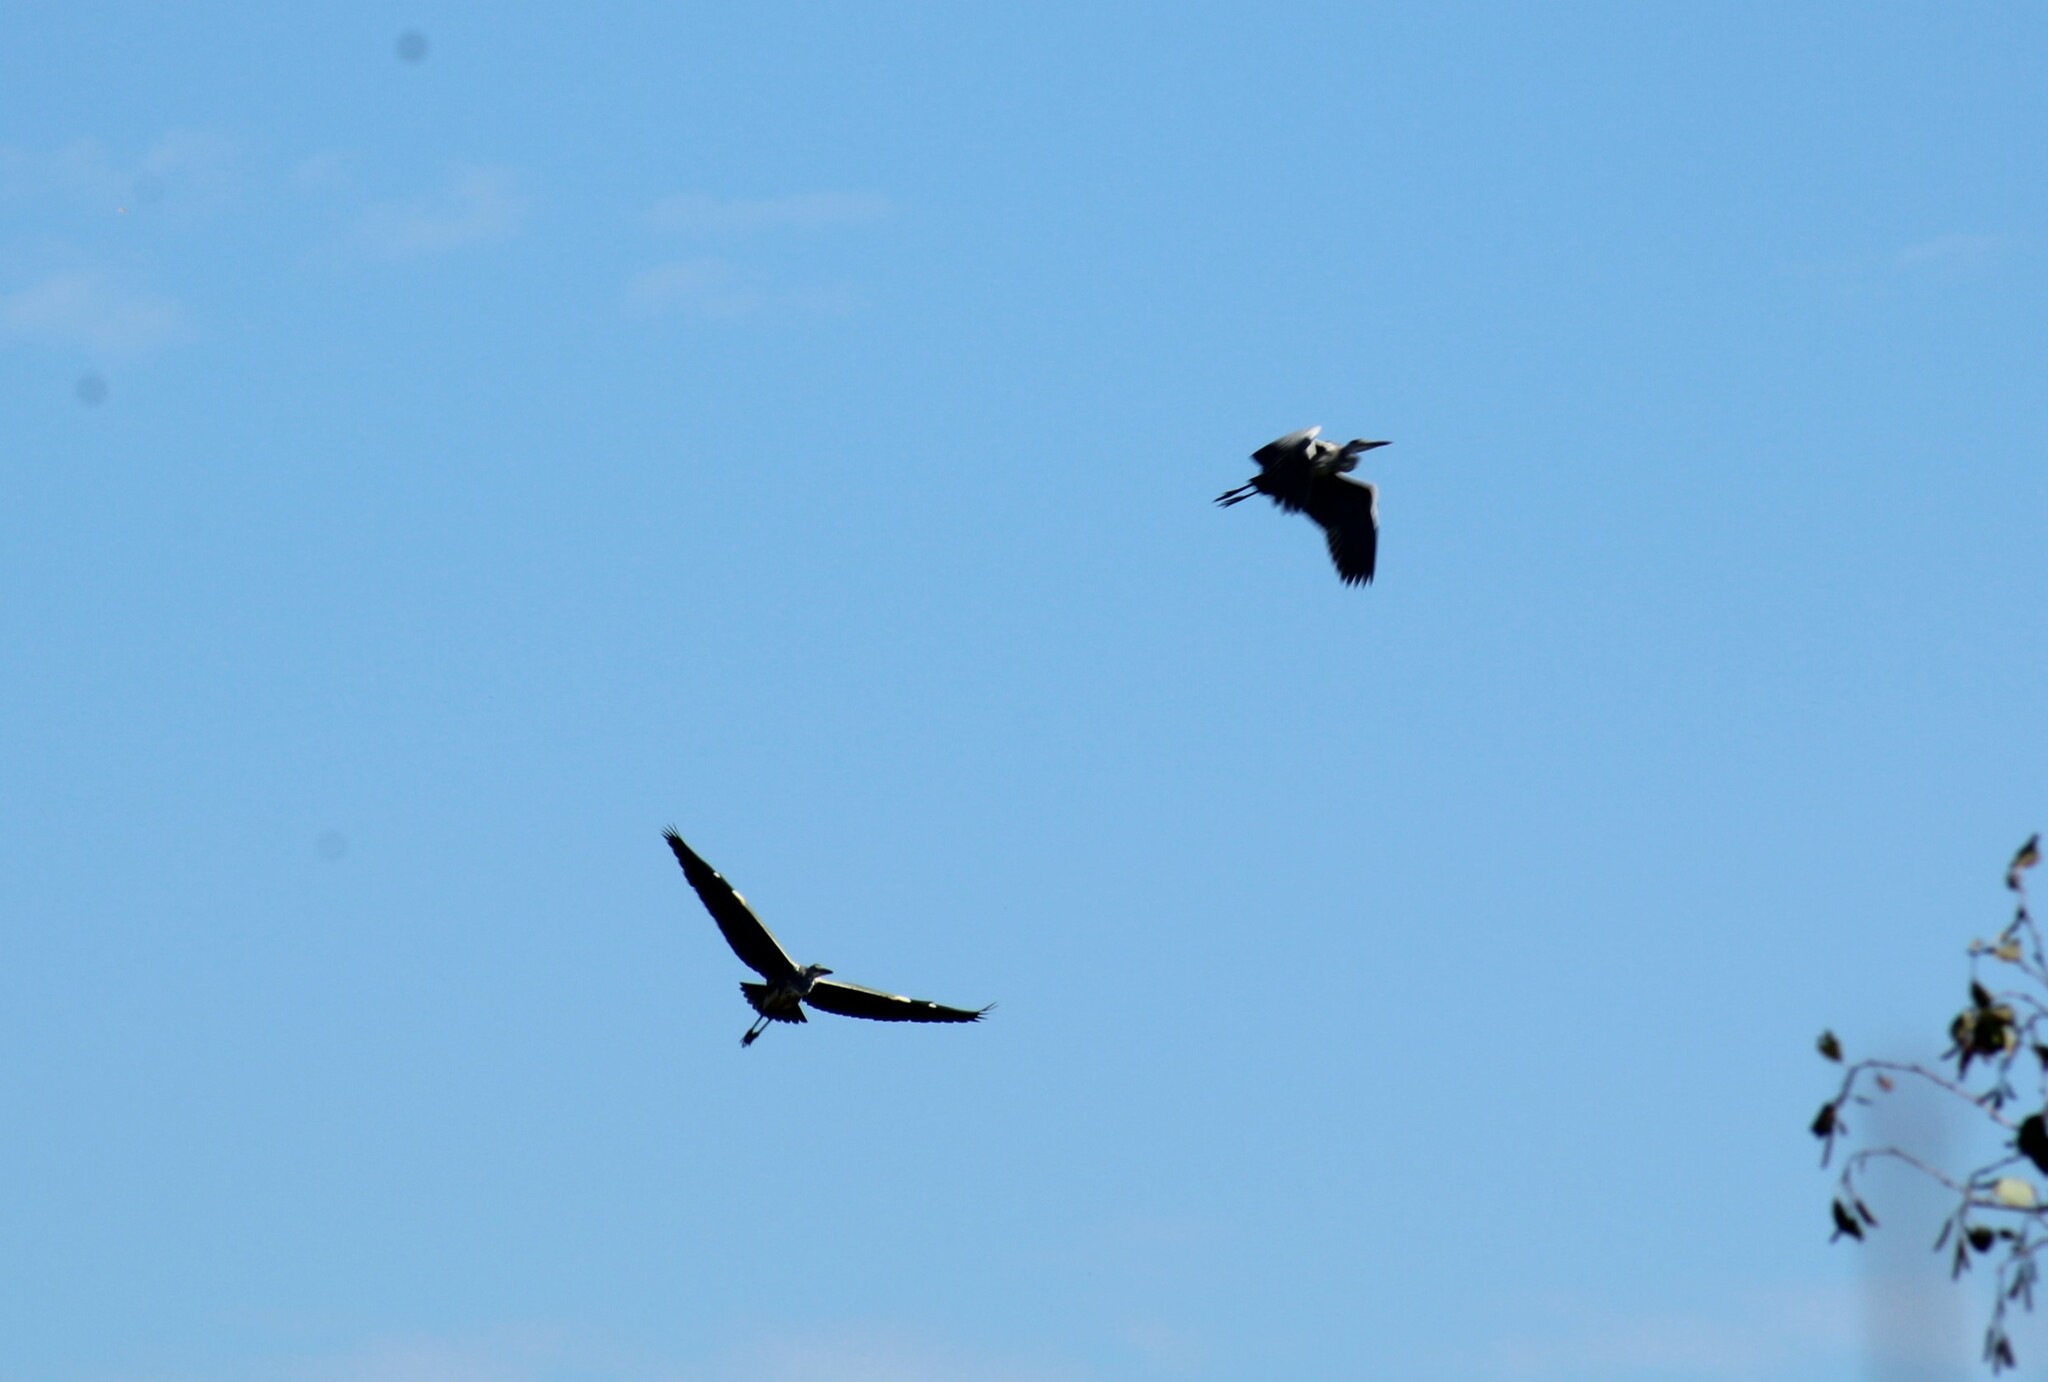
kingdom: Animalia
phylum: Chordata
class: Aves
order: Pelecaniformes
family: Ardeidae
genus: Ardea
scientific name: Ardea cinerea
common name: Grey heron
